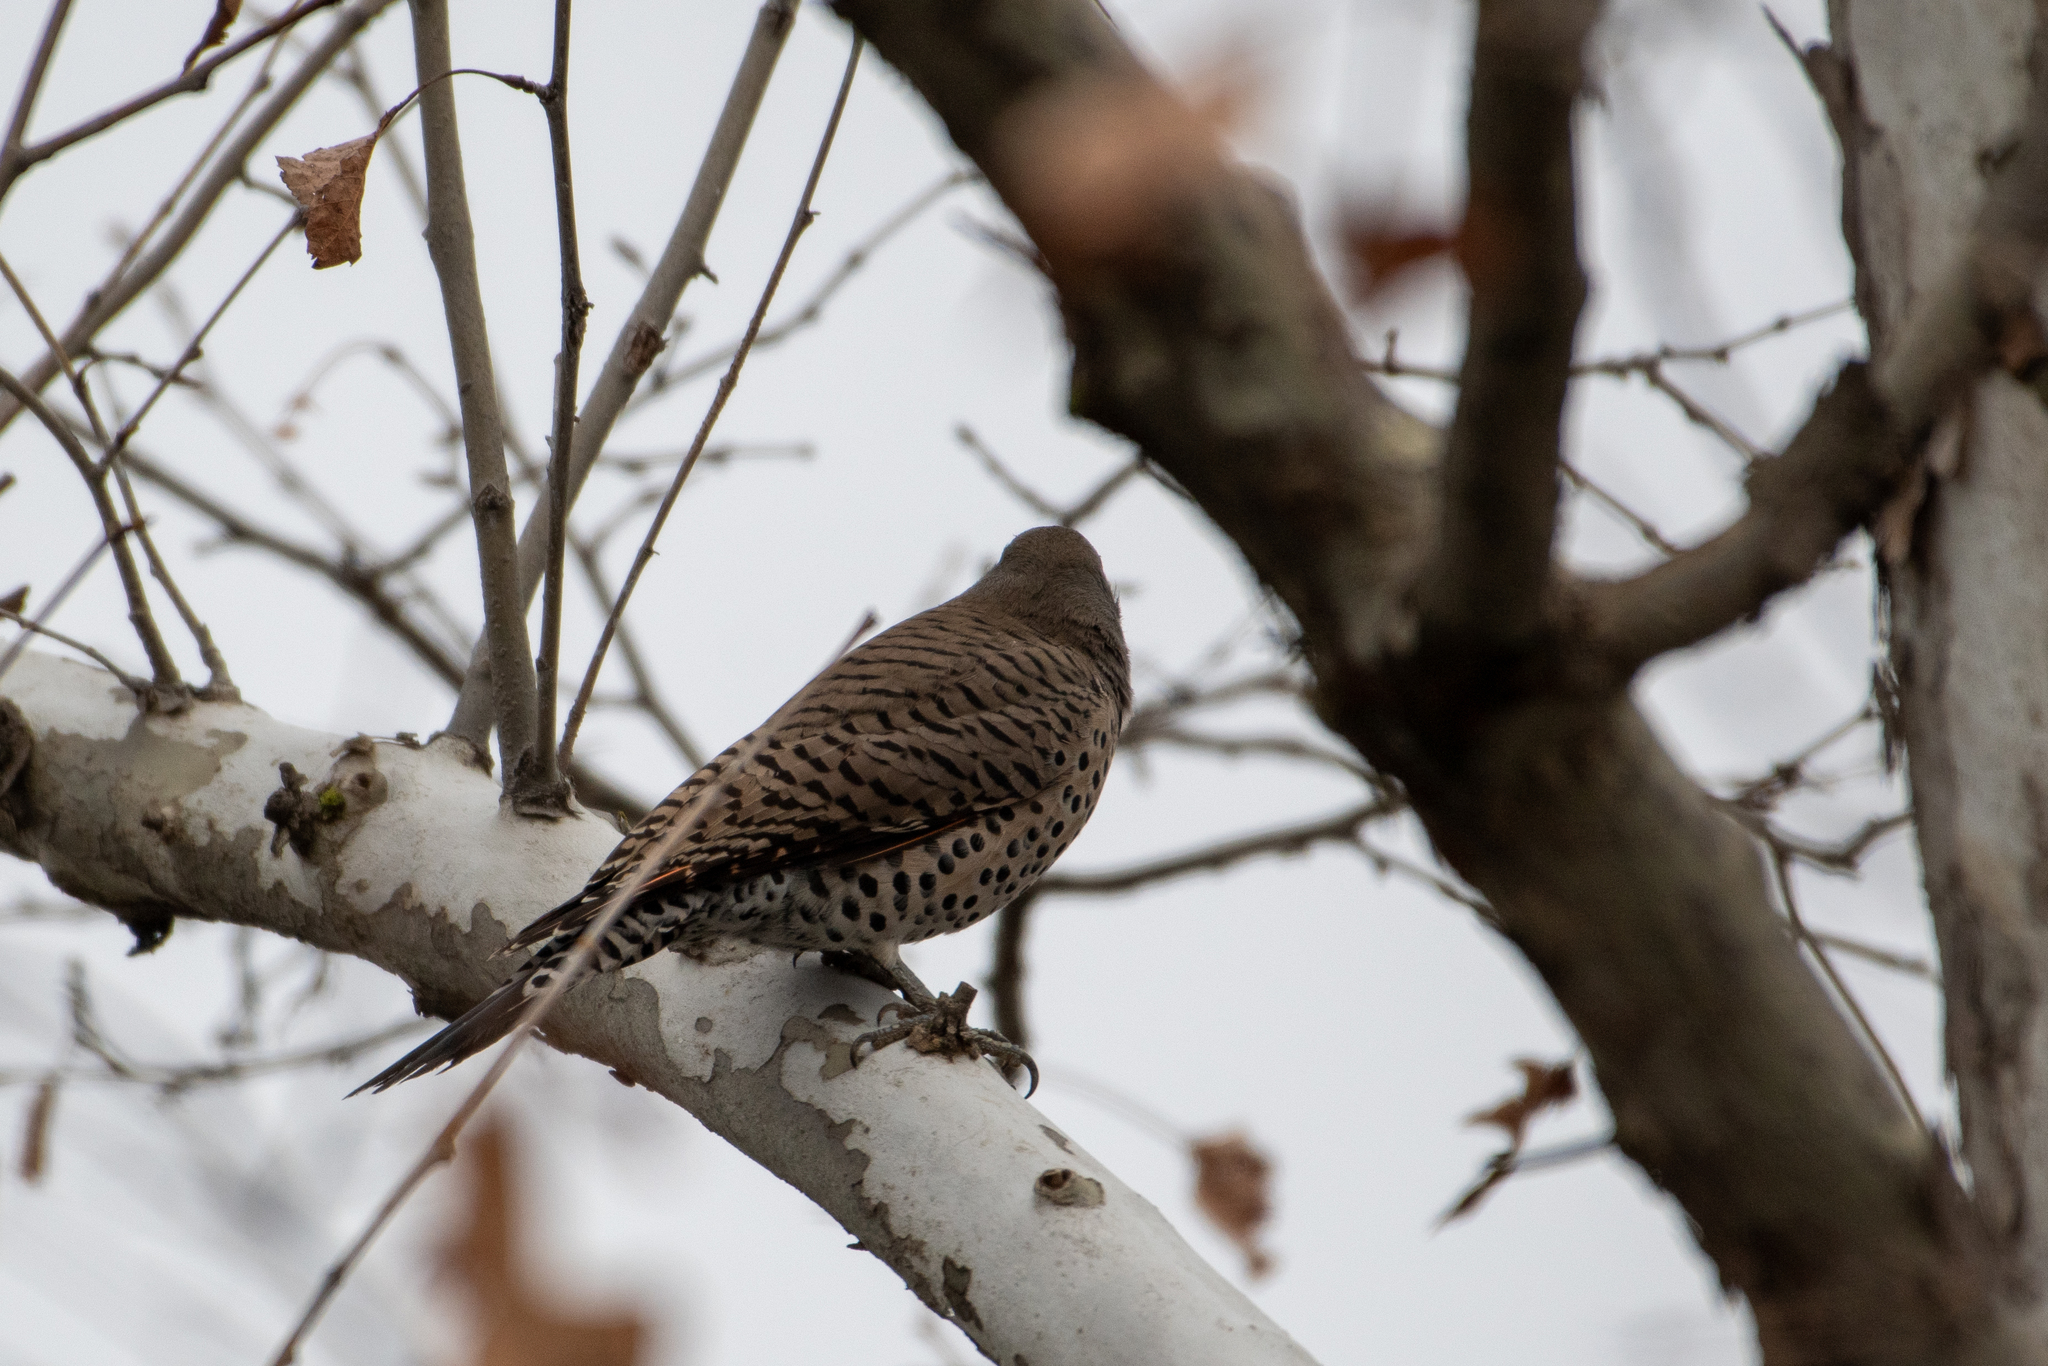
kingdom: Animalia
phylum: Chordata
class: Aves
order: Piciformes
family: Picidae
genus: Colaptes
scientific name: Colaptes auratus
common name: Northern flicker
